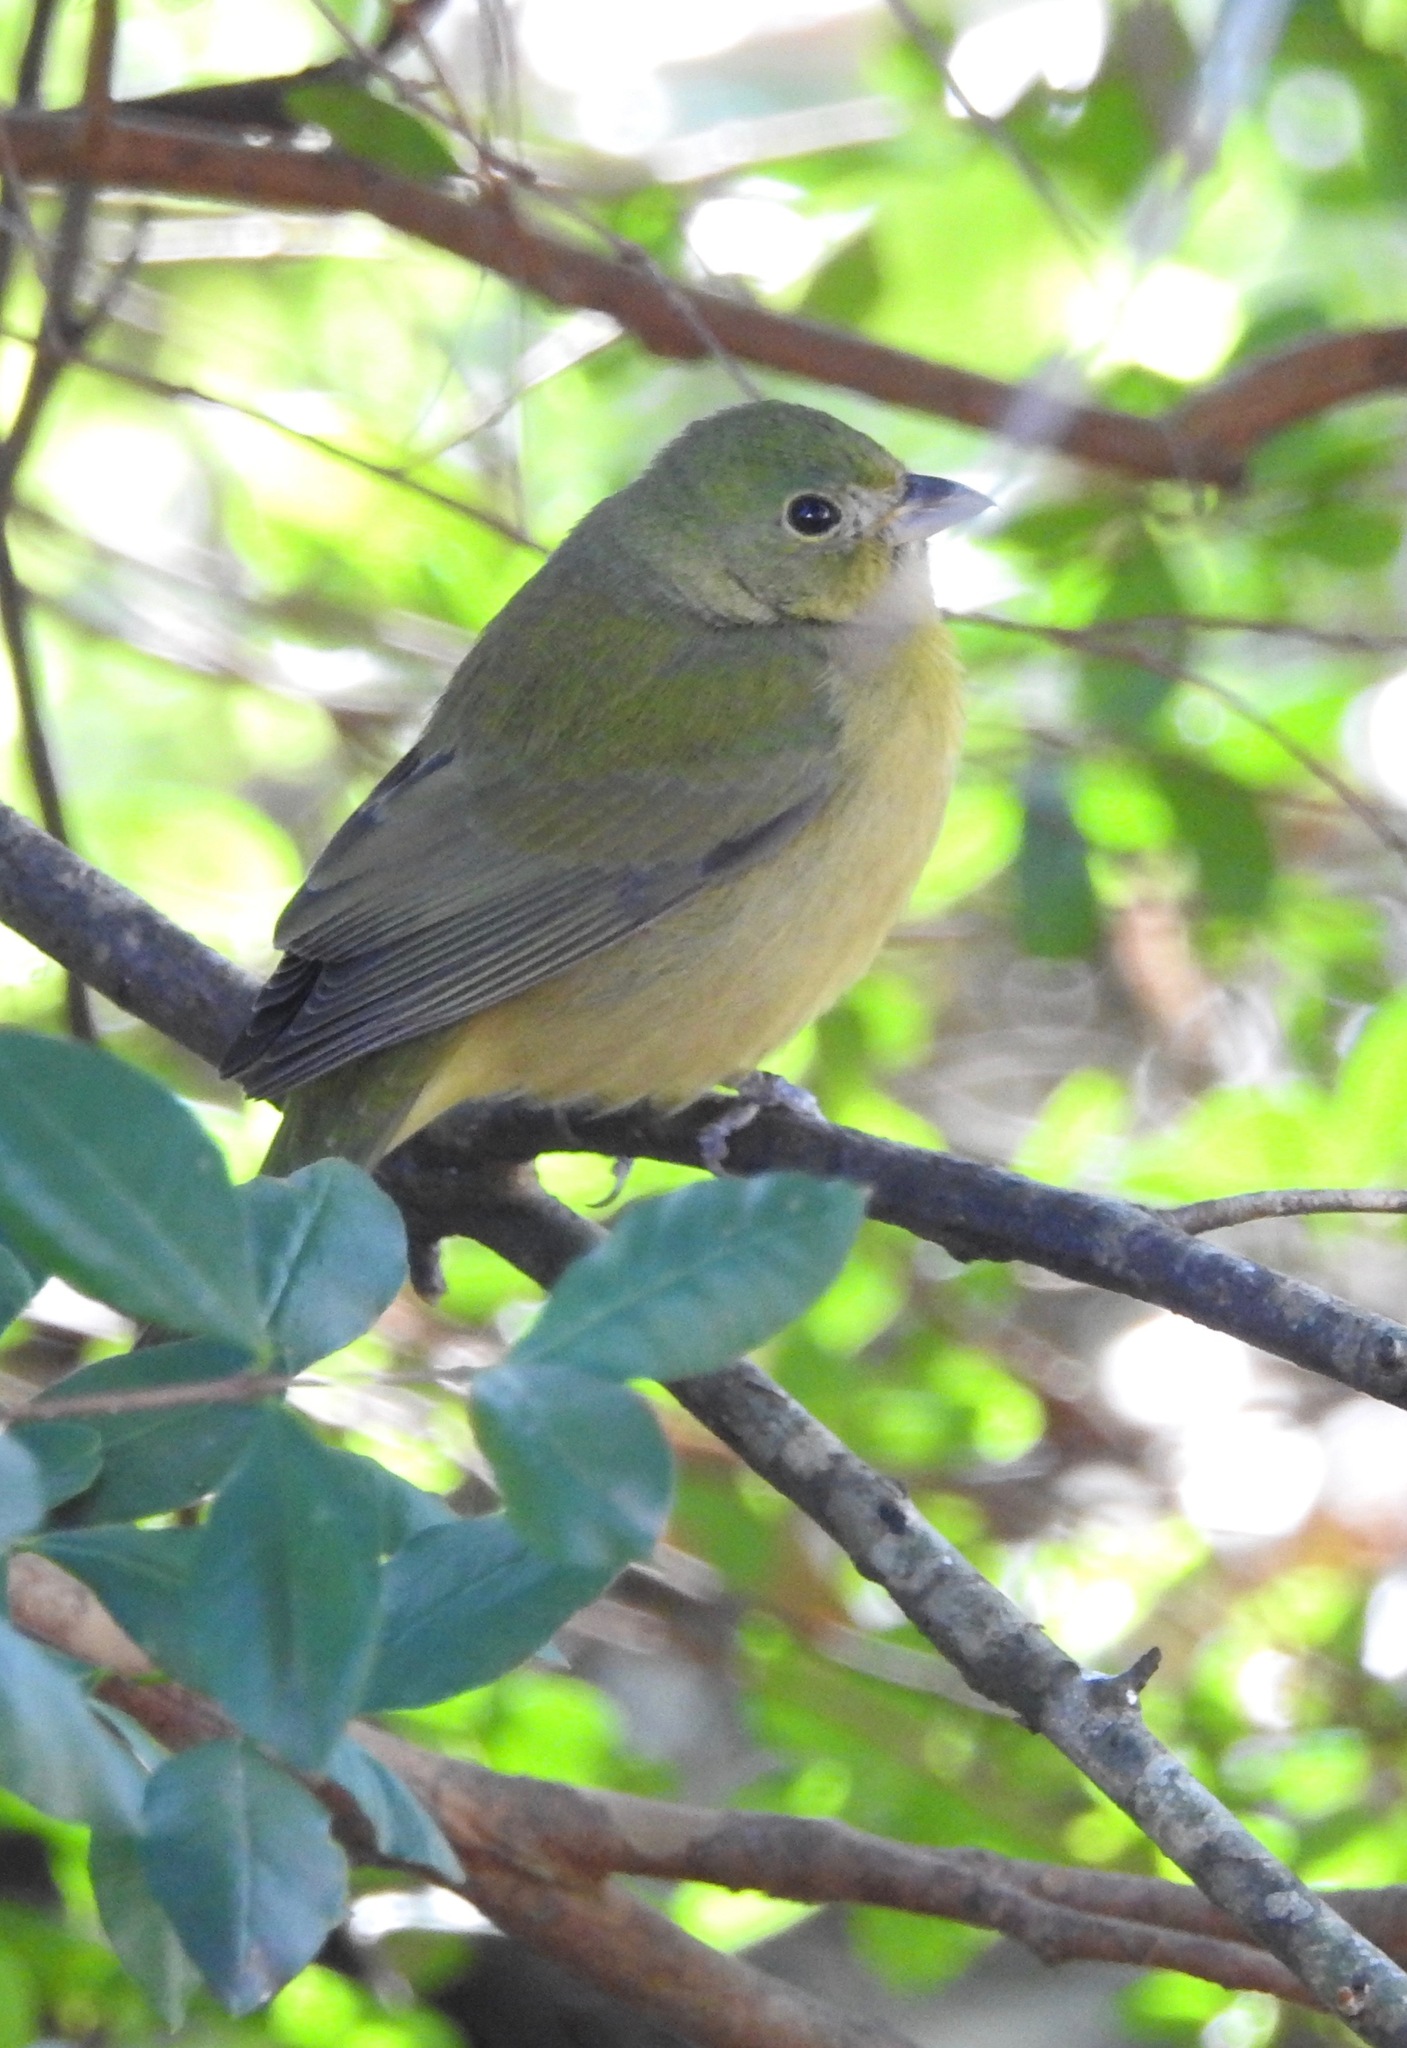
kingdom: Animalia
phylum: Chordata
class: Aves
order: Passeriformes
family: Cardinalidae
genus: Passerina
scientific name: Passerina ciris
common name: Painted bunting
